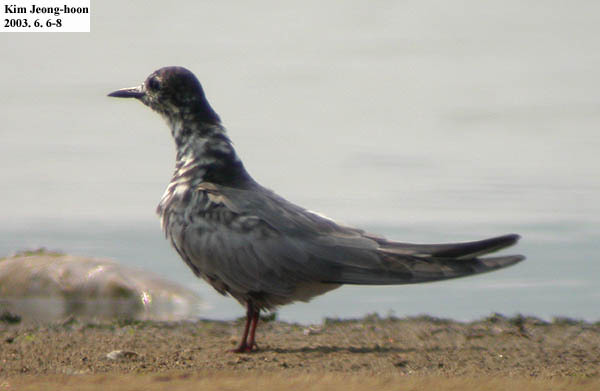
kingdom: Animalia
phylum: Chordata
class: Aves
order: Charadriiformes
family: Laridae
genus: Chlidonias
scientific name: Chlidonias niger
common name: Black tern
